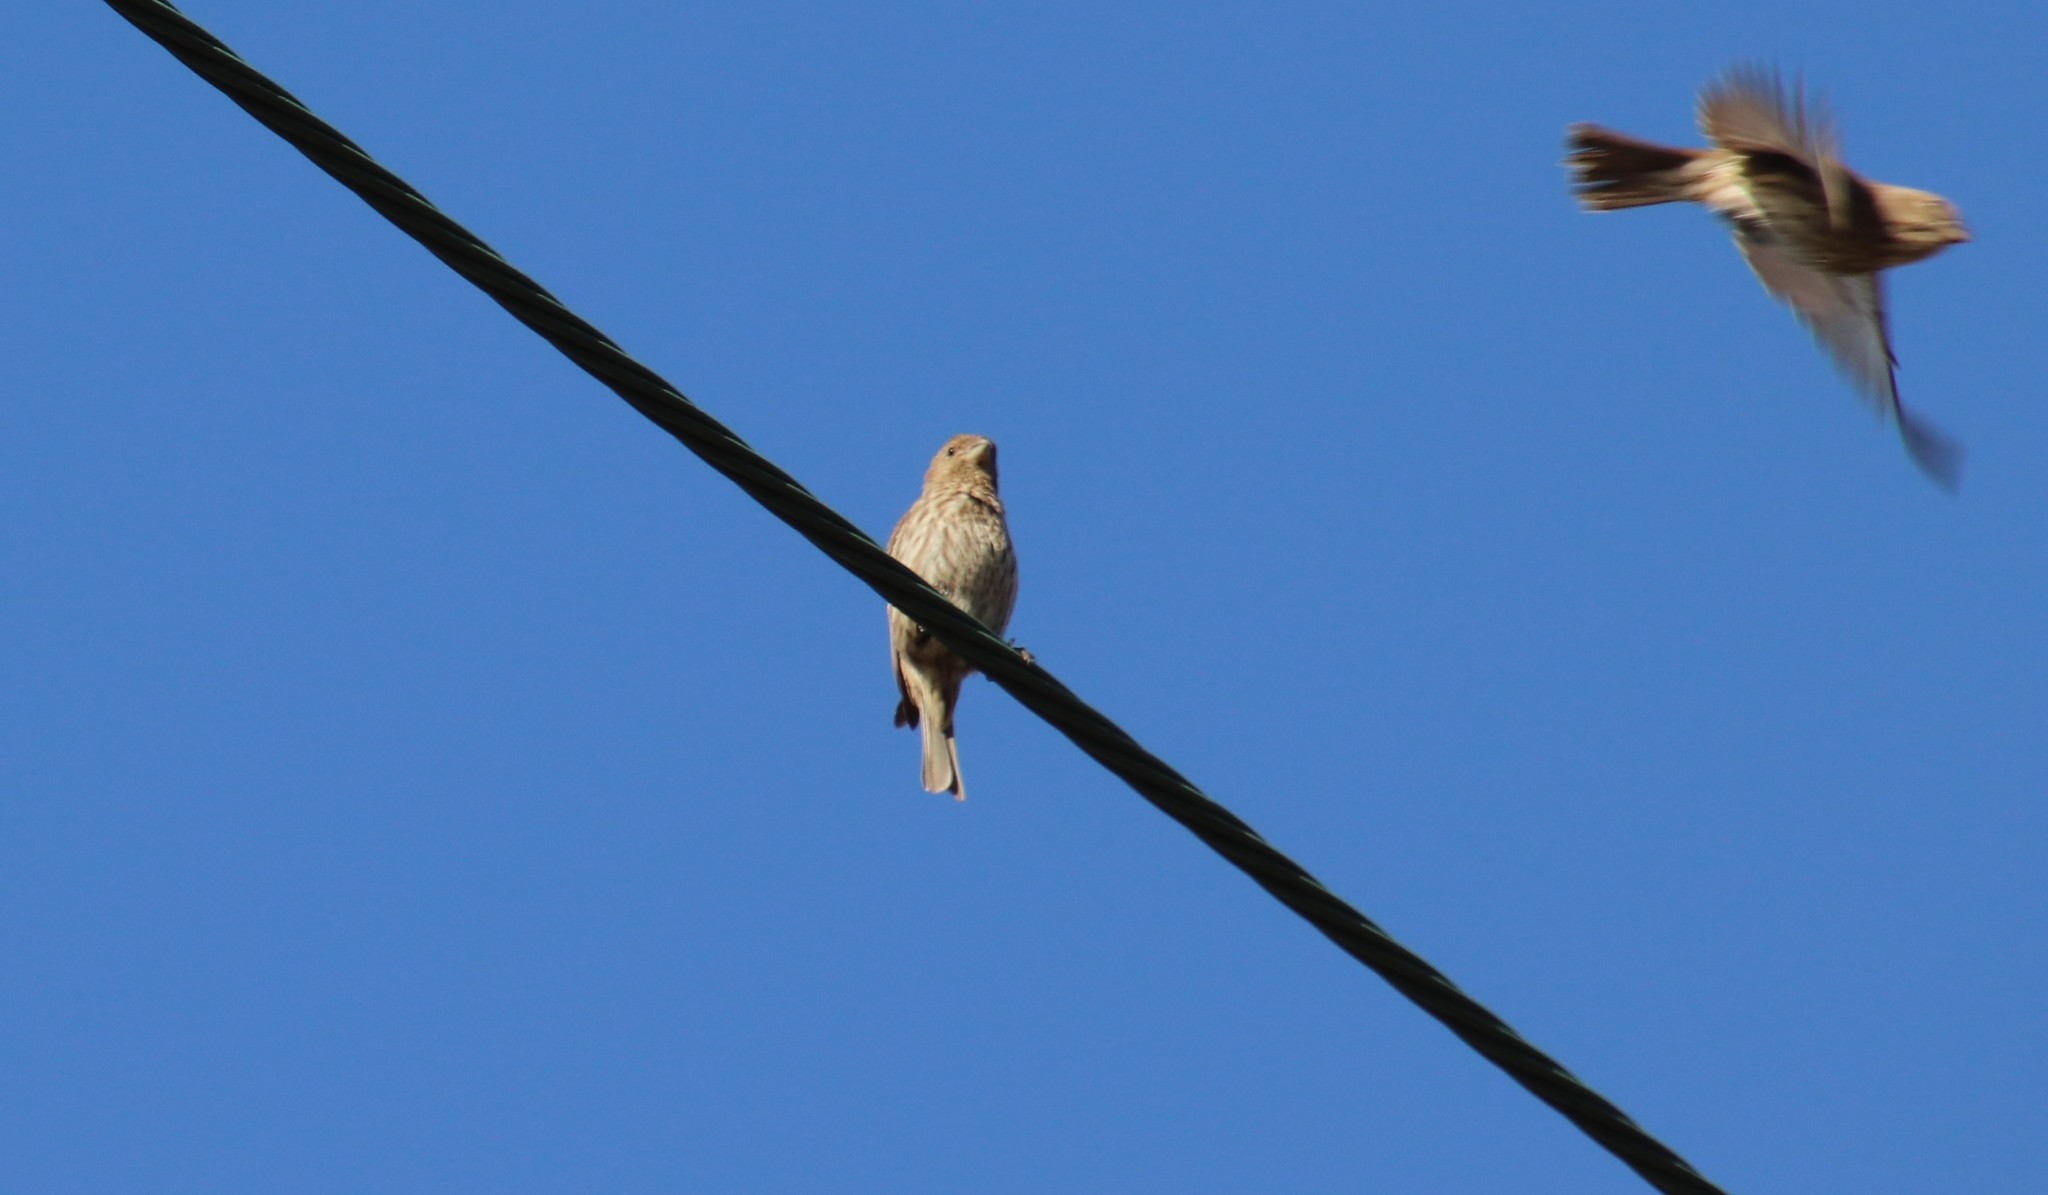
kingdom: Animalia
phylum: Chordata
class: Aves
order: Passeriformes
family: Fringillidae
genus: Haemorhous
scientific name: Haemorhous mexicanus
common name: House finch
